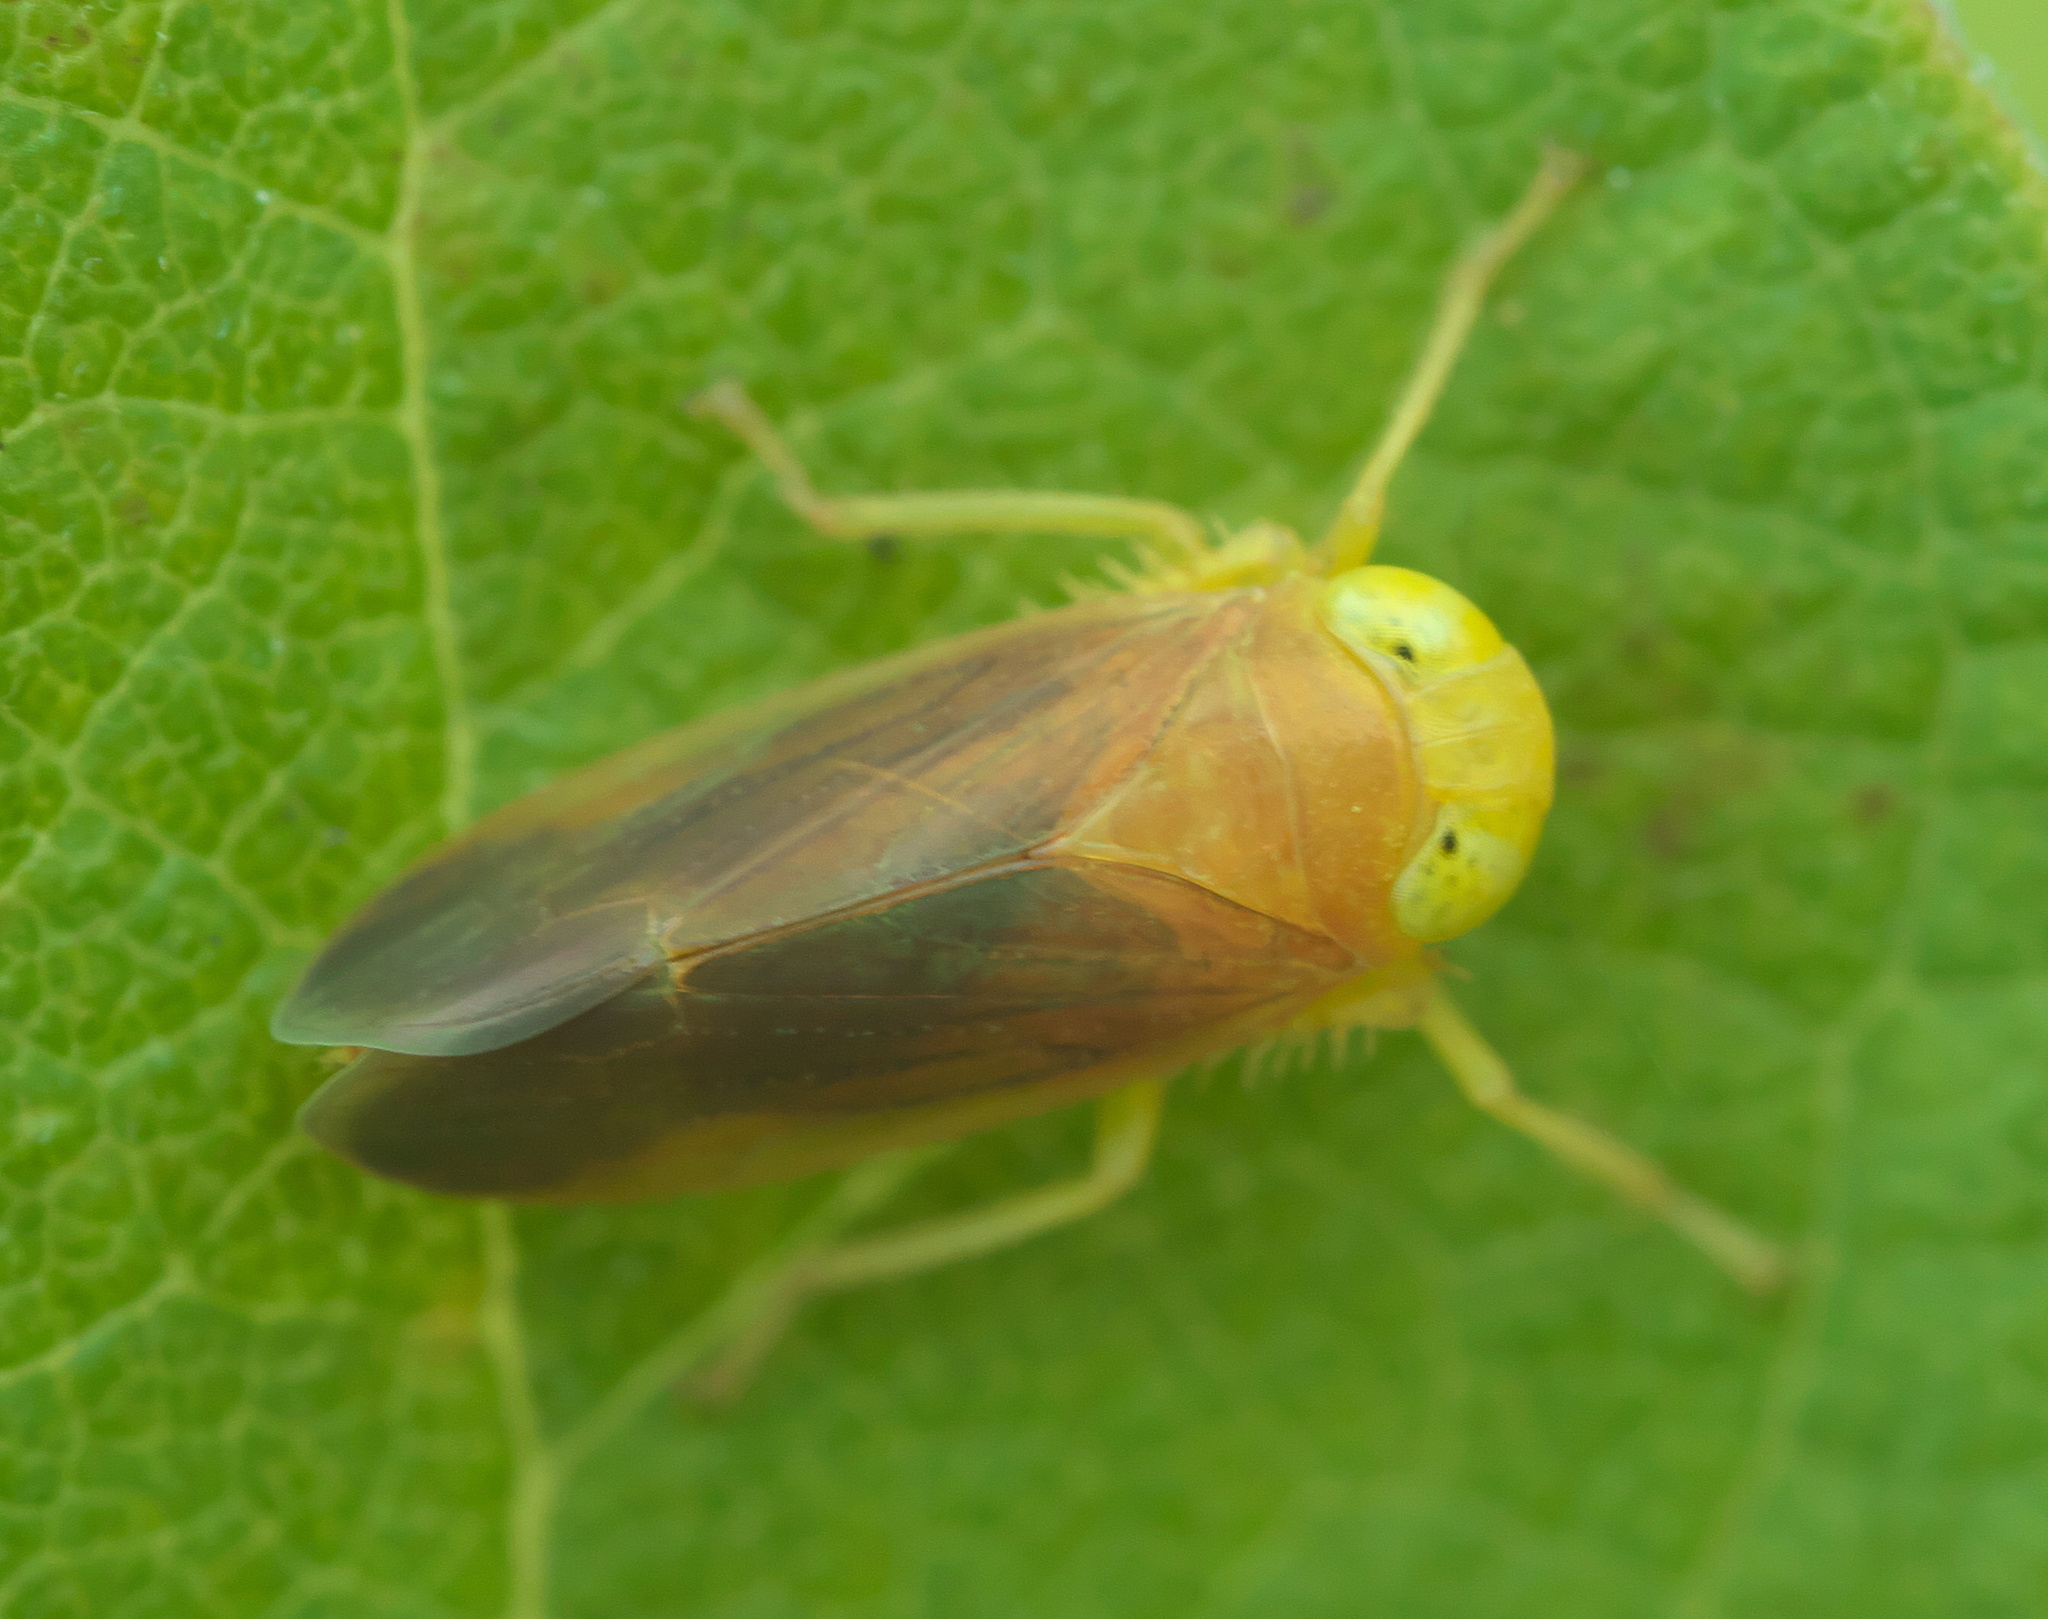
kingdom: Animalia
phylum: Arthropoda
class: Insecta
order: Hemiptera
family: Cicadellidae
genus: Jikradia
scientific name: Jikradia olitoria
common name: Coppery leafhopper
